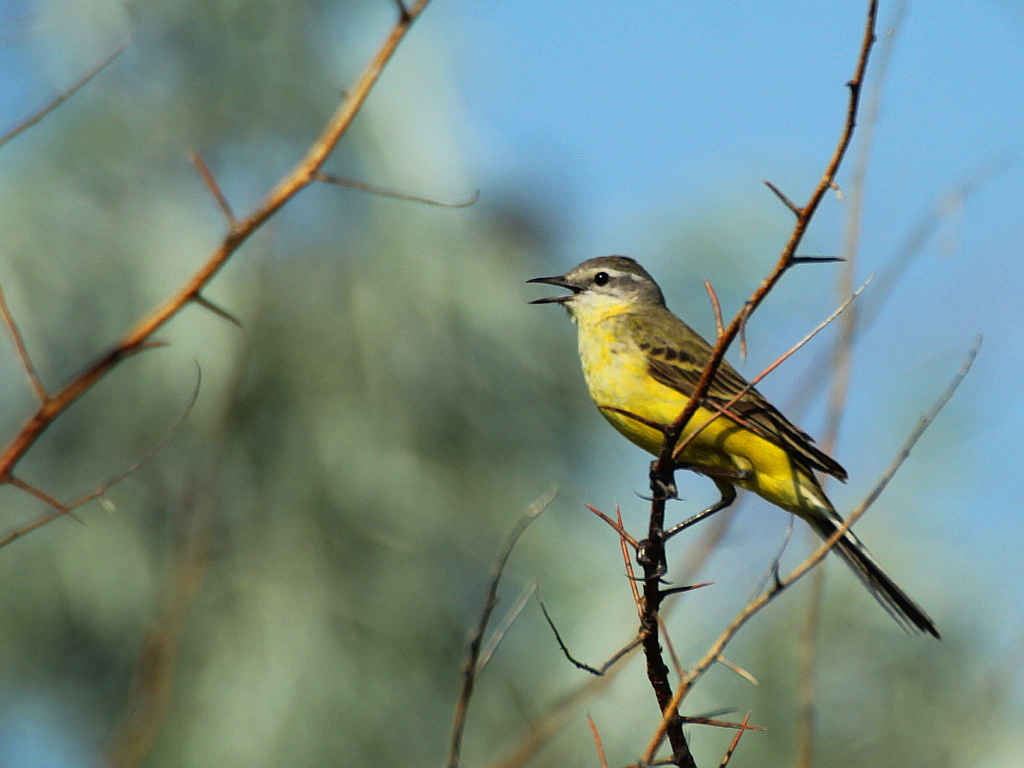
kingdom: Animalia
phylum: Chordata
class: Aves
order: Passeriformes
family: Motacillidae
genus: Motacilla
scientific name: Motacilla flava
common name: Western yellow wagtail
